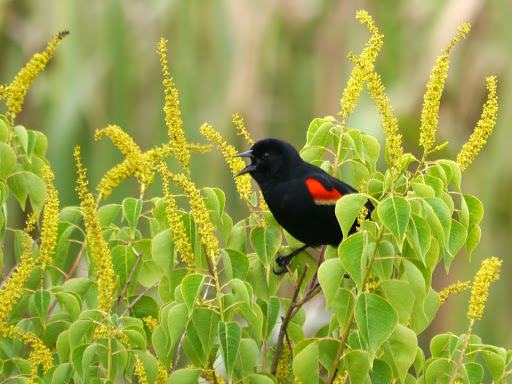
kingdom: Animalia
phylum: Chordata
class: Aves
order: Passeriformes
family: Icteridae
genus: Agelaius
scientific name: Agelaius phoeniceus
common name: Red-winged blackbird
